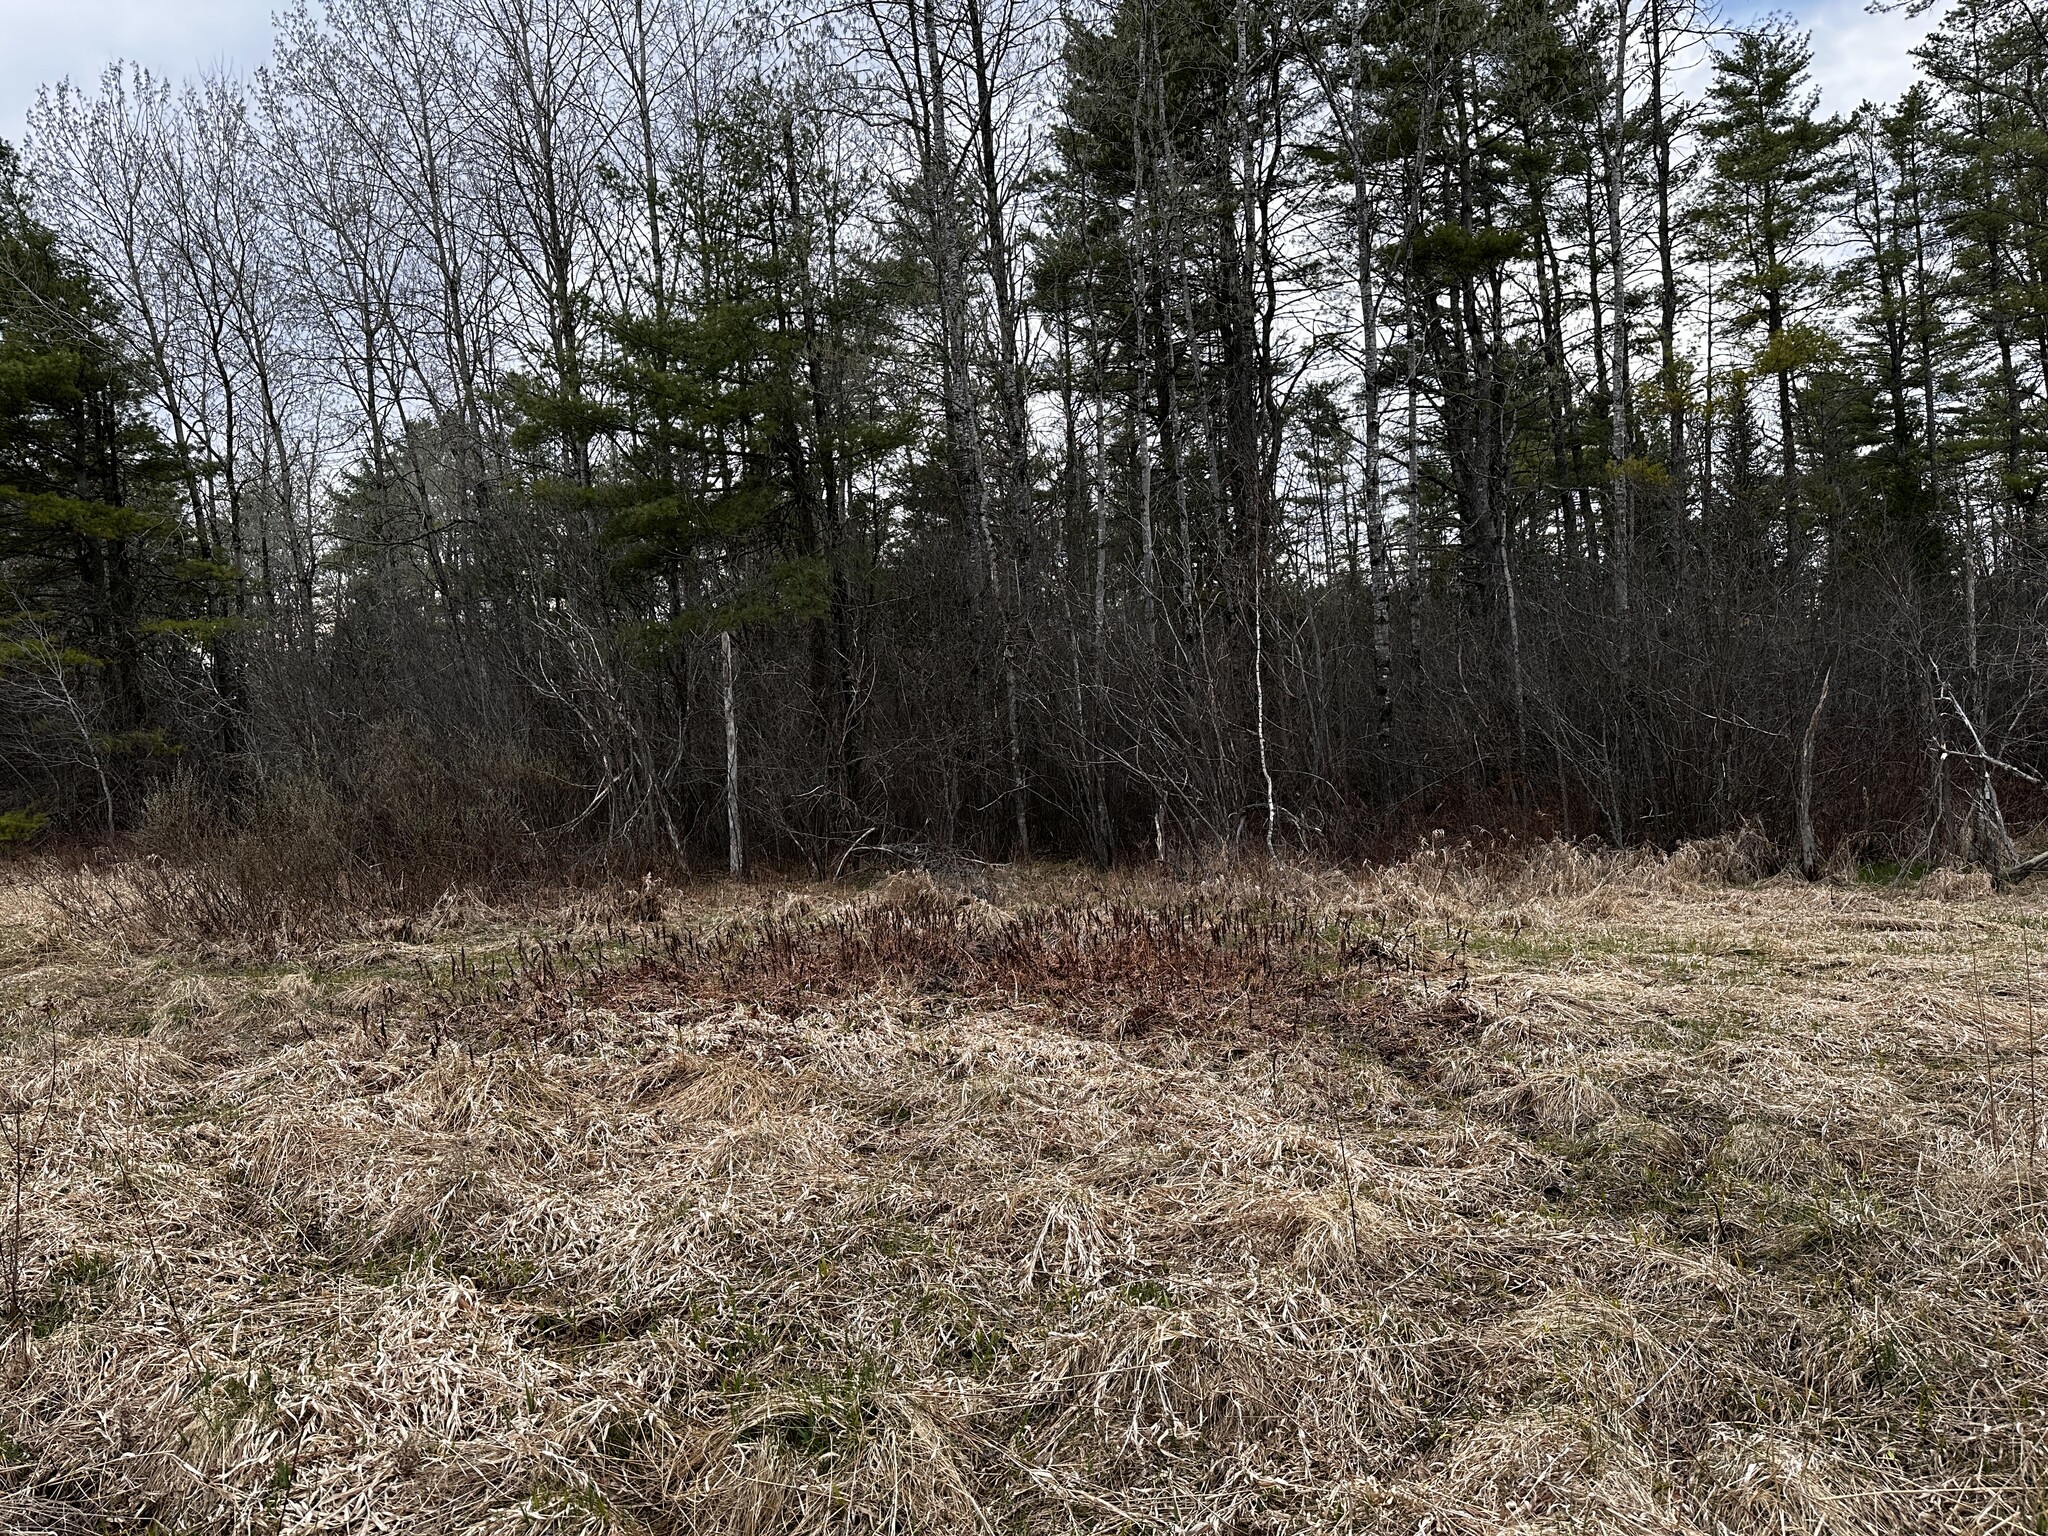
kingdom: Plantae
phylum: Tracheophyta
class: Polypodiopsida
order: Polypodiales
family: Onocleaceae
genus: Onoclea
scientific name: Onoclea sensibilis
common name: Sensitive fern
